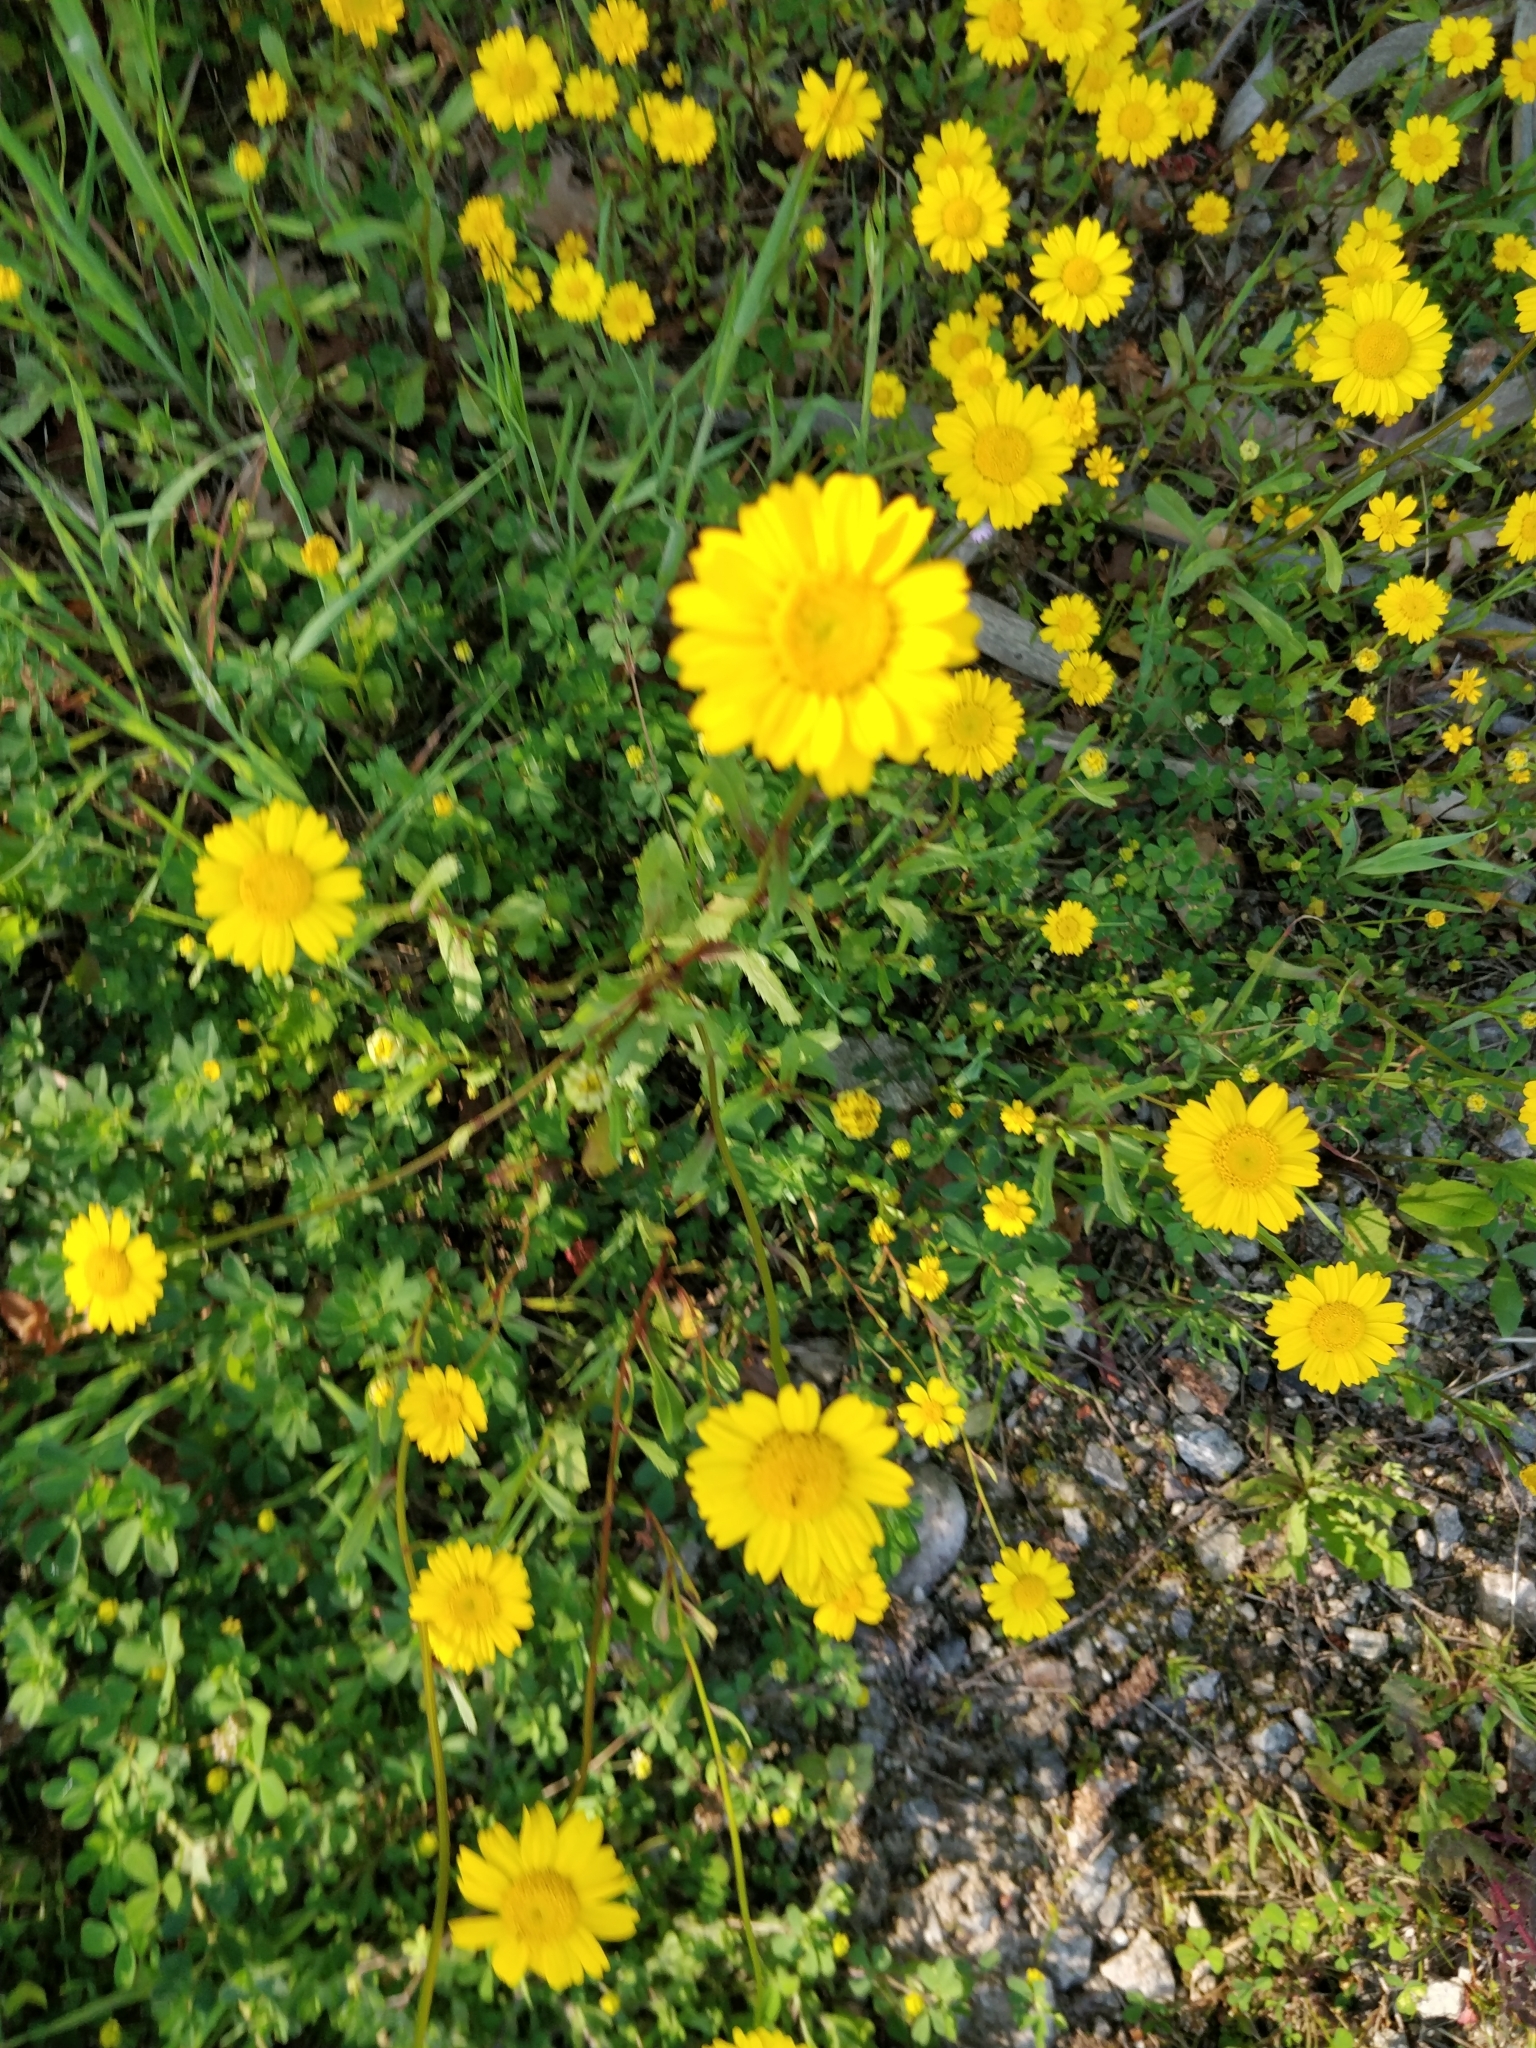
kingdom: Plantae
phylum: Tracheophyta
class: Magnoliopsida
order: Asterales
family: Asteraceae
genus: Coleostephus
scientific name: Coleostephus myconis
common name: Mediterranean marigold
